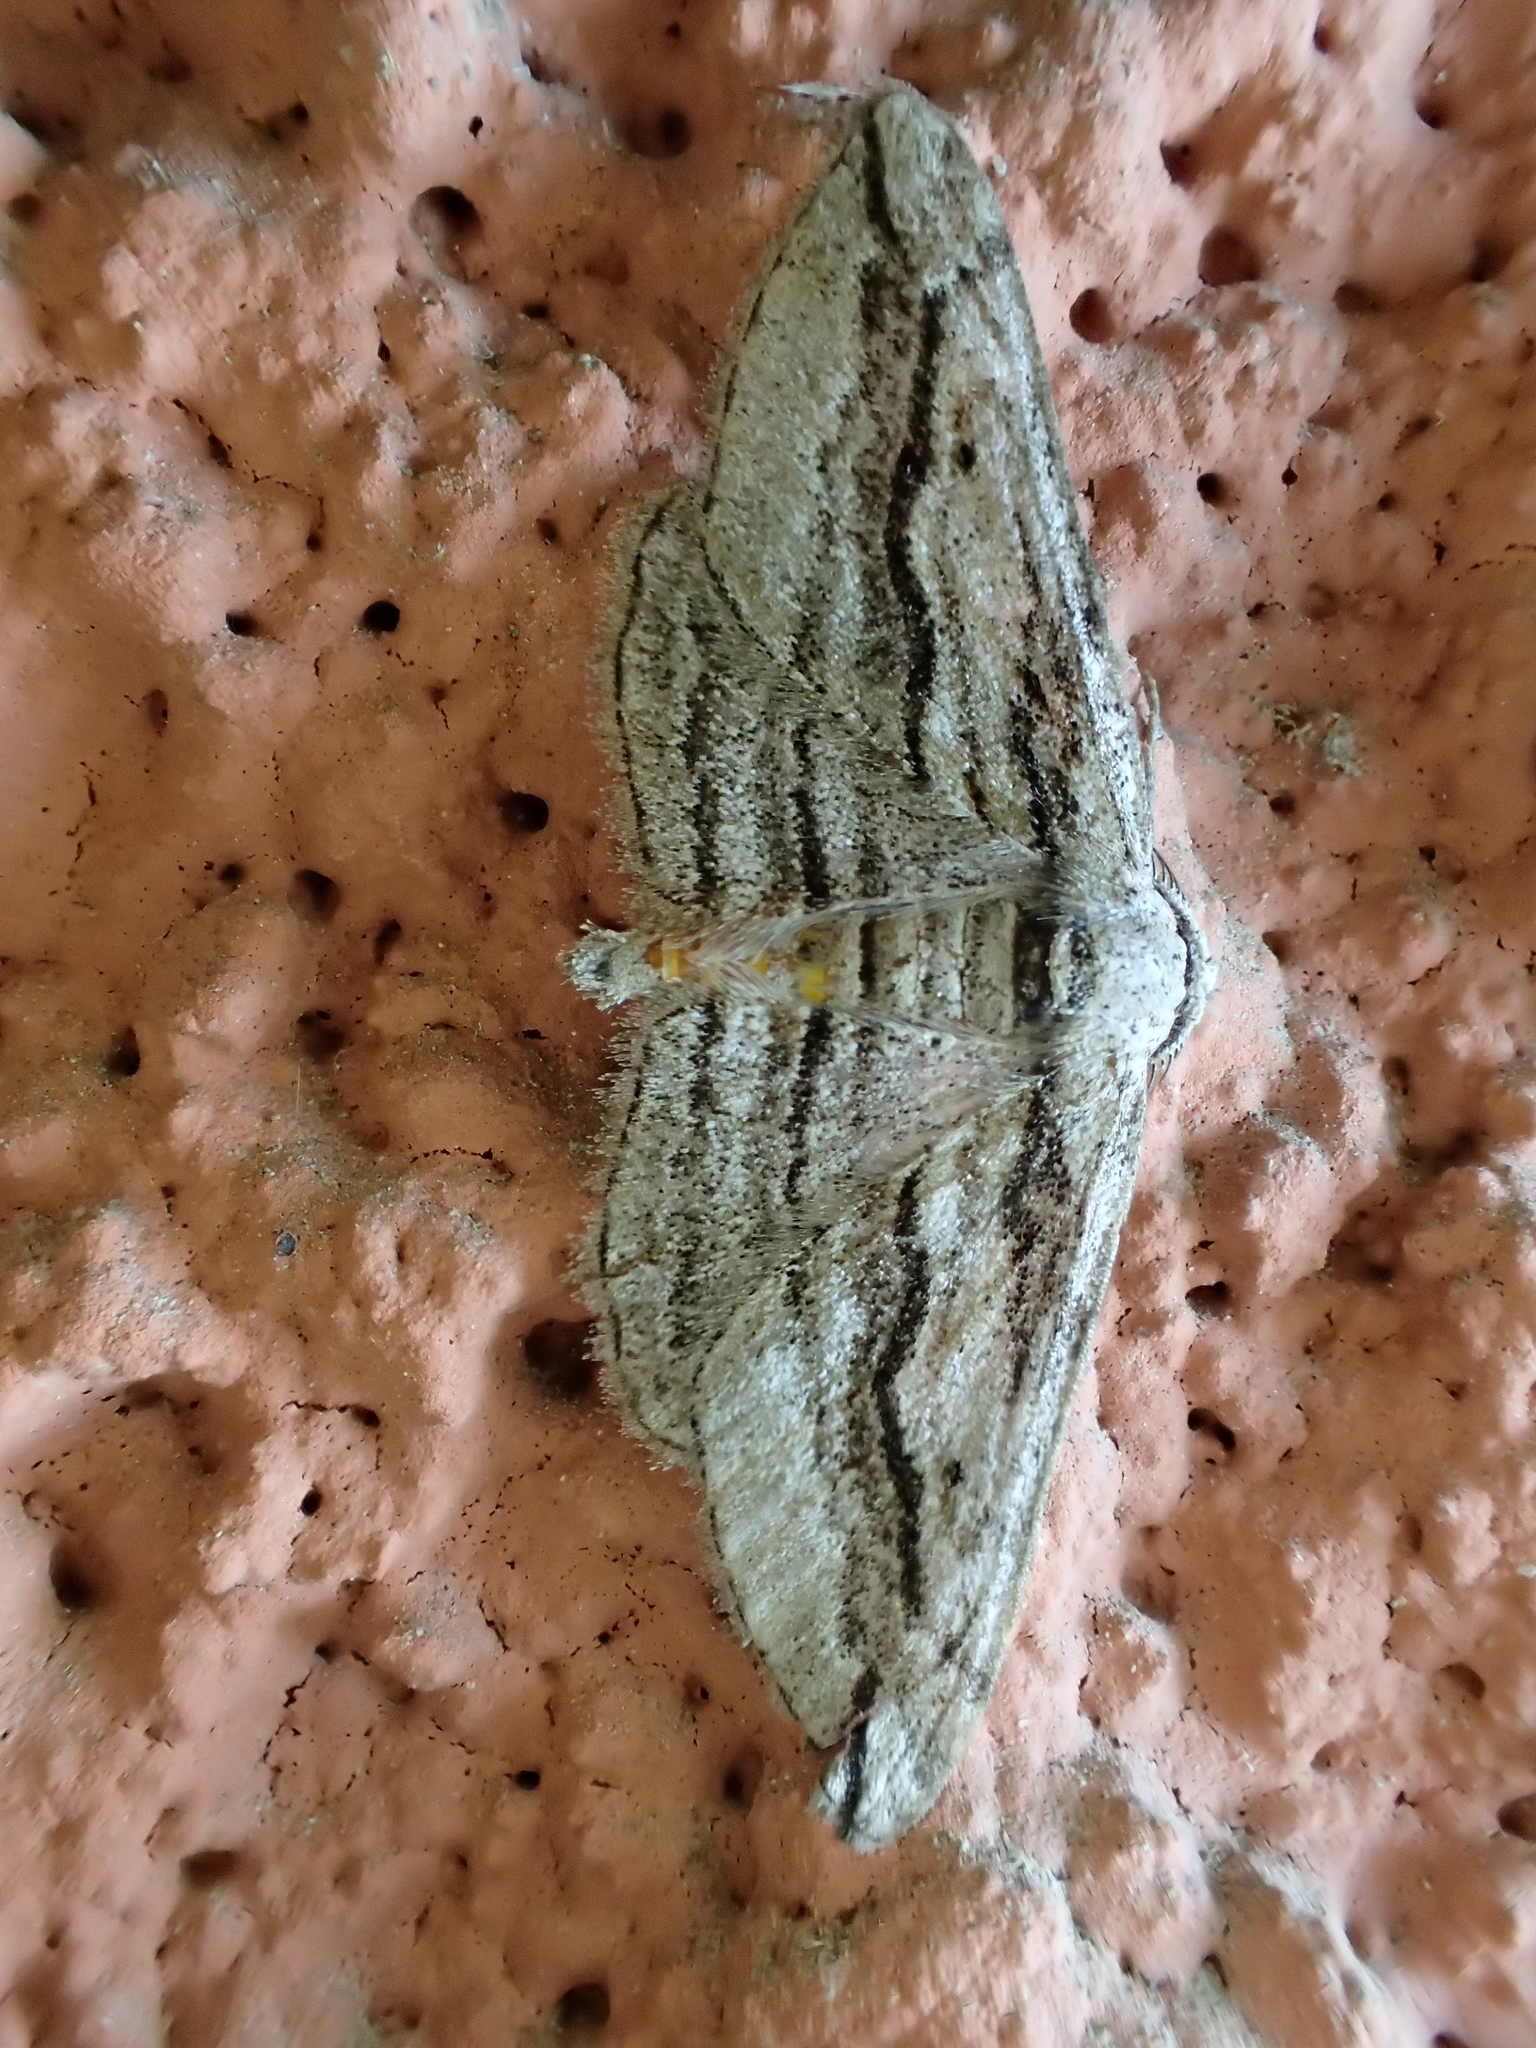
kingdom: Animalia
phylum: Arthropoda
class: Insecta
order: Lepidoptera
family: Geometridae
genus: Ecleora
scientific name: Ecleora solieraria
